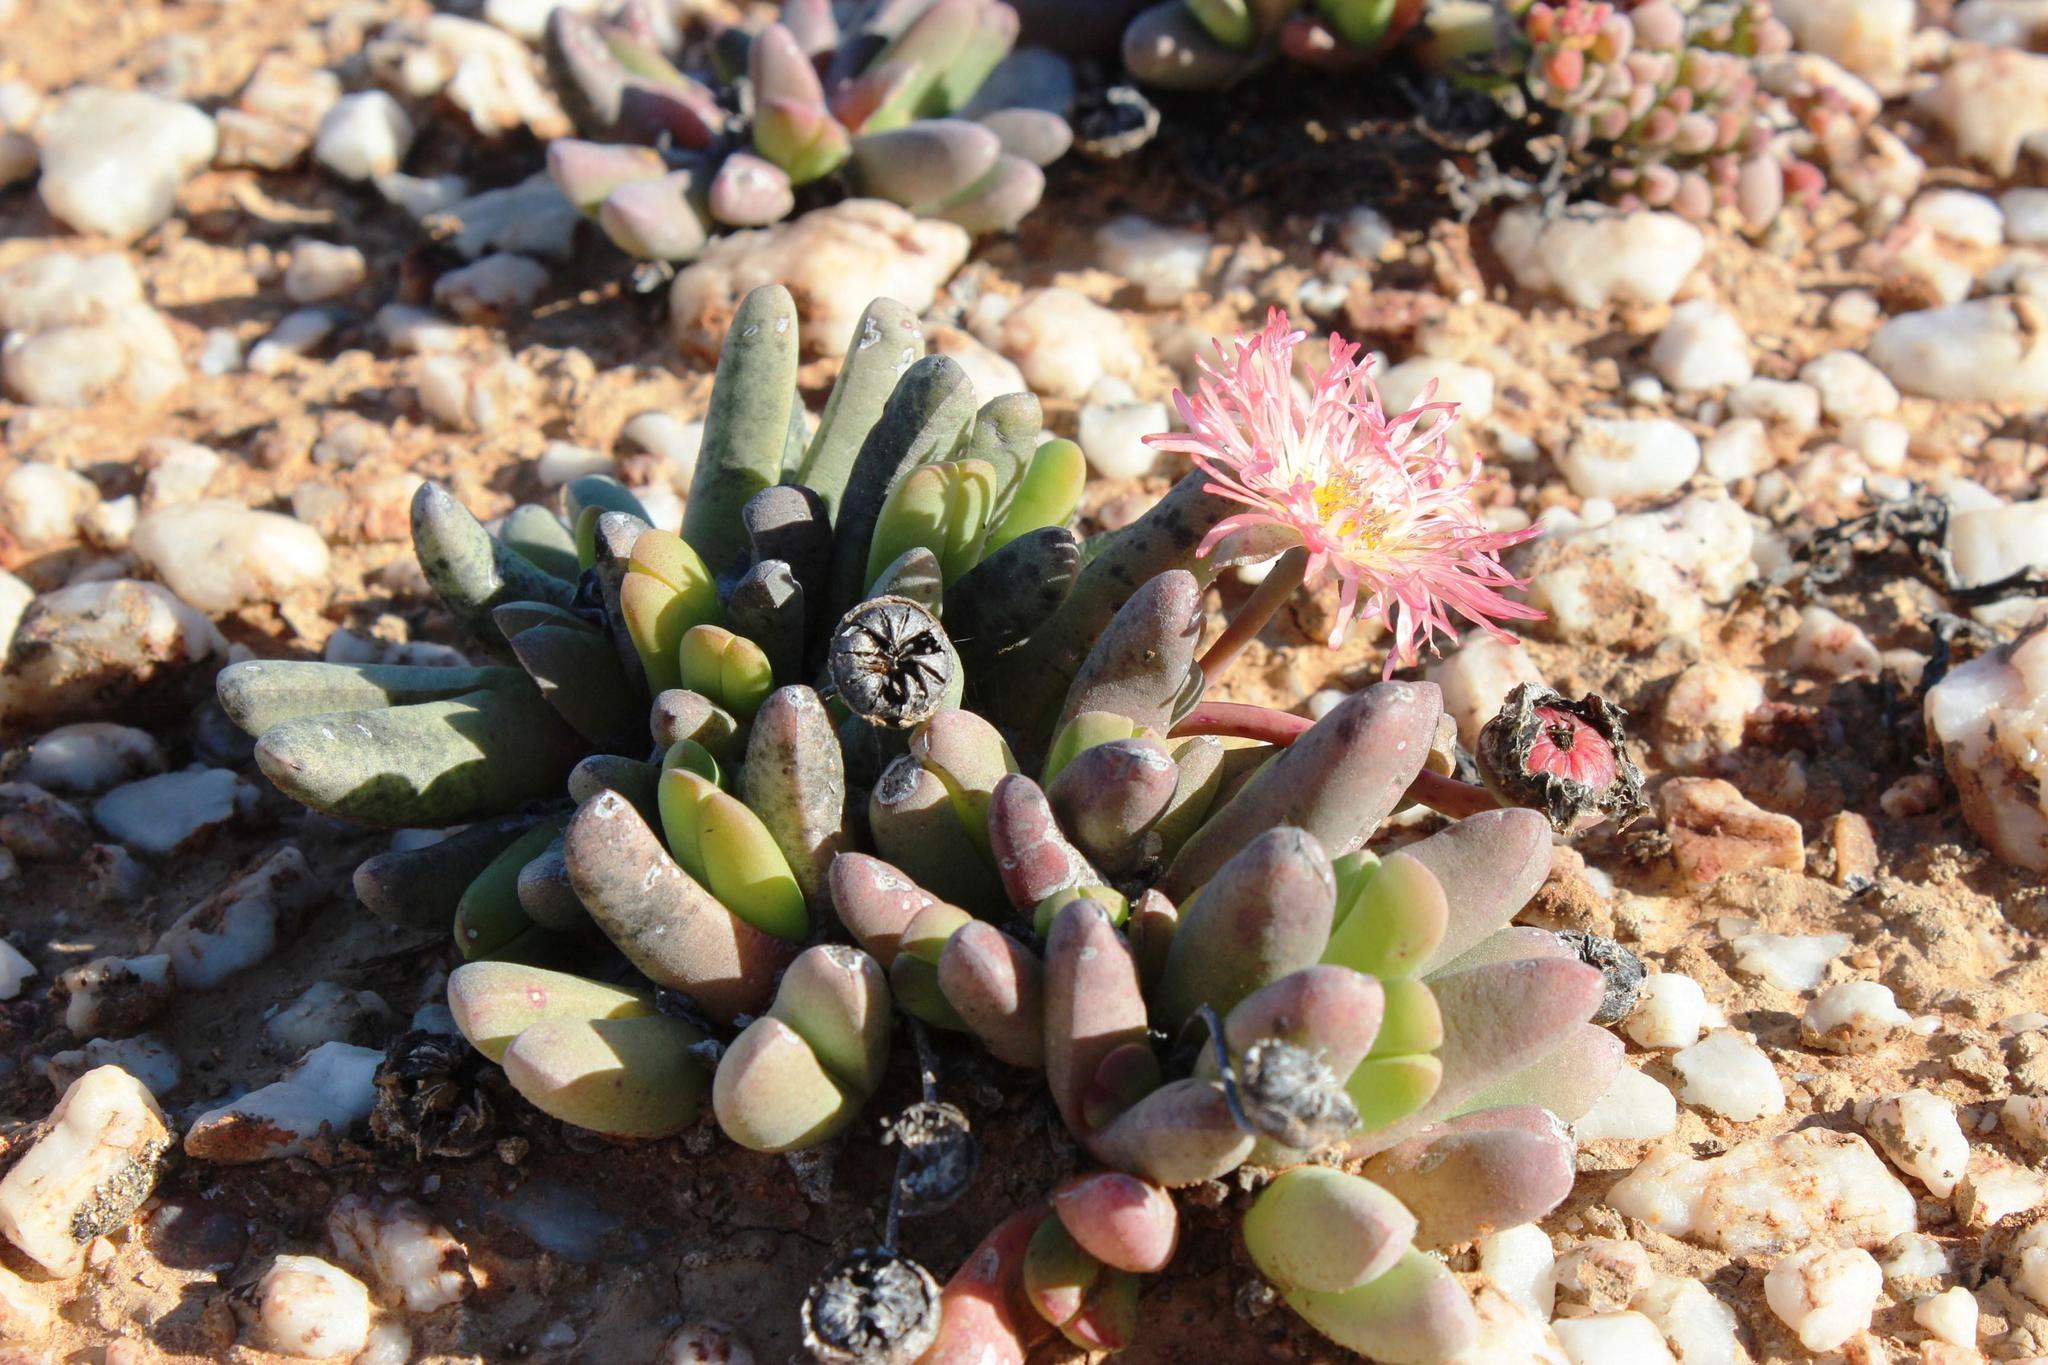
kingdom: Plantae
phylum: Tracheophyta
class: Magnoliopsida
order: Caryophyllales
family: Aizoaceae
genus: Cephalophyllum
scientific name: Cephalophyllum spissum
